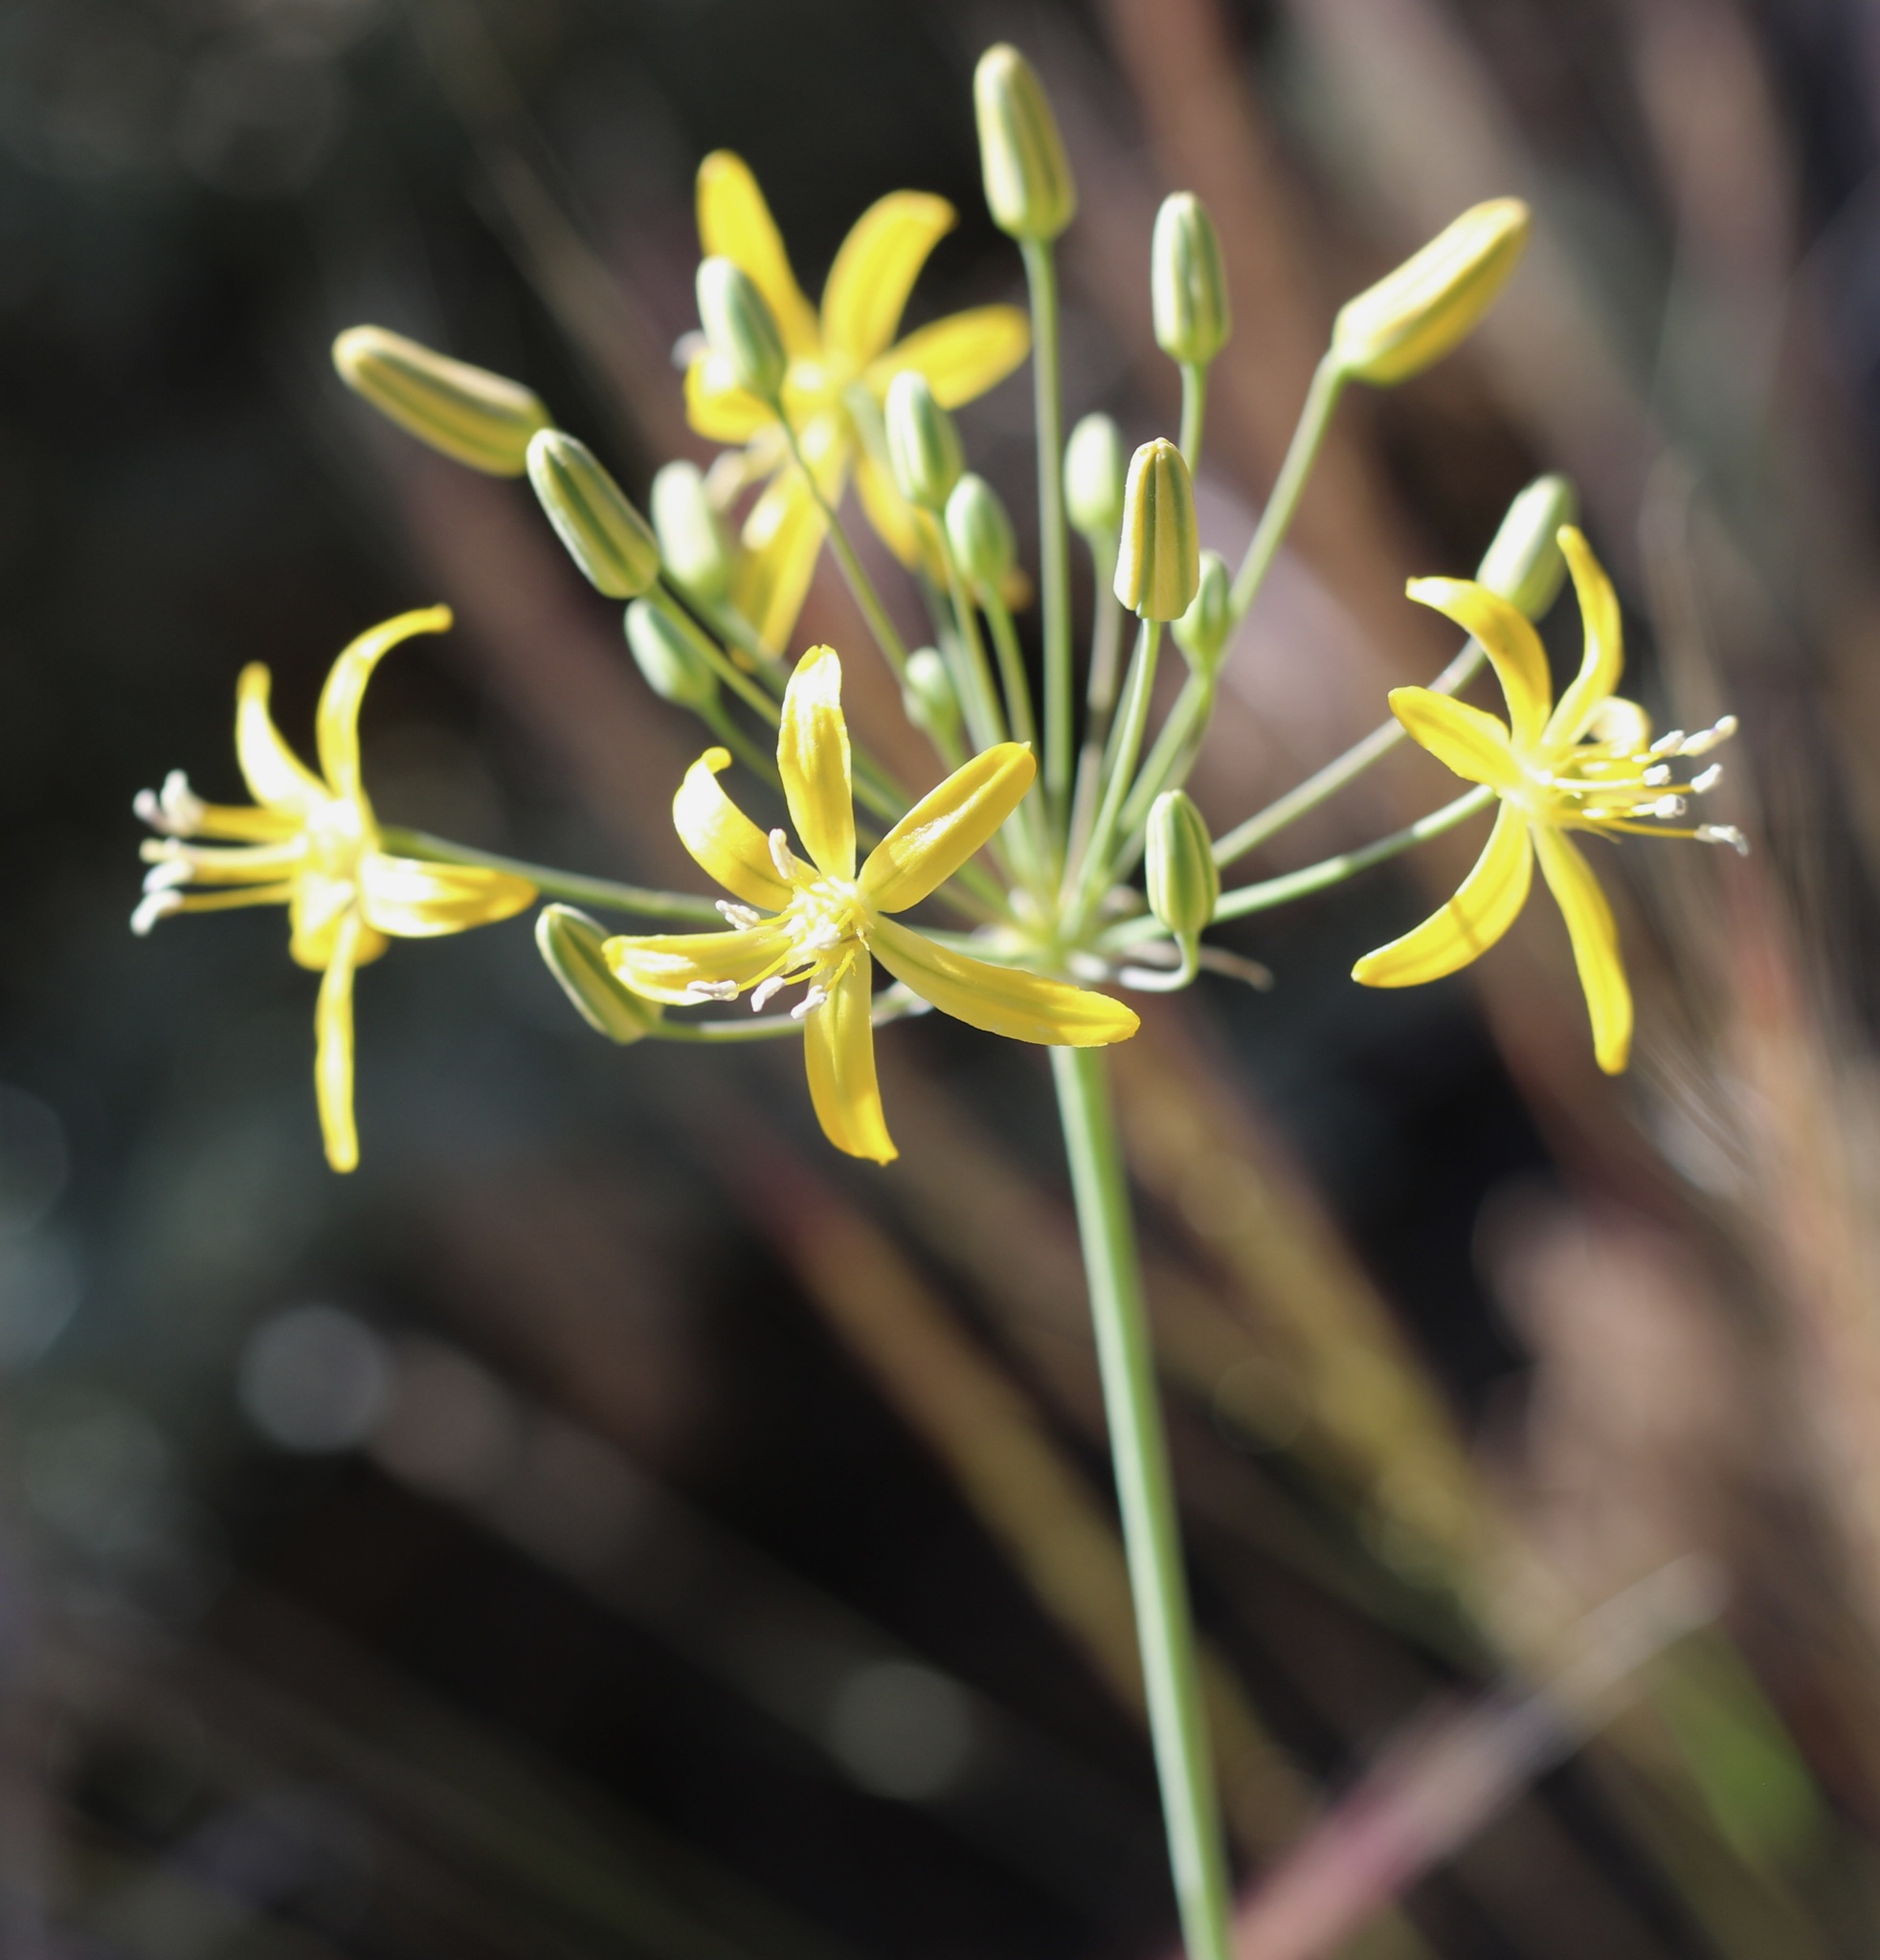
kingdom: Plantae
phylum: Tracheophyta
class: Liliopsida
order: Asparagales
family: Asparagaceae
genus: Bloomeria
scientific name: Bloomeria crocea
